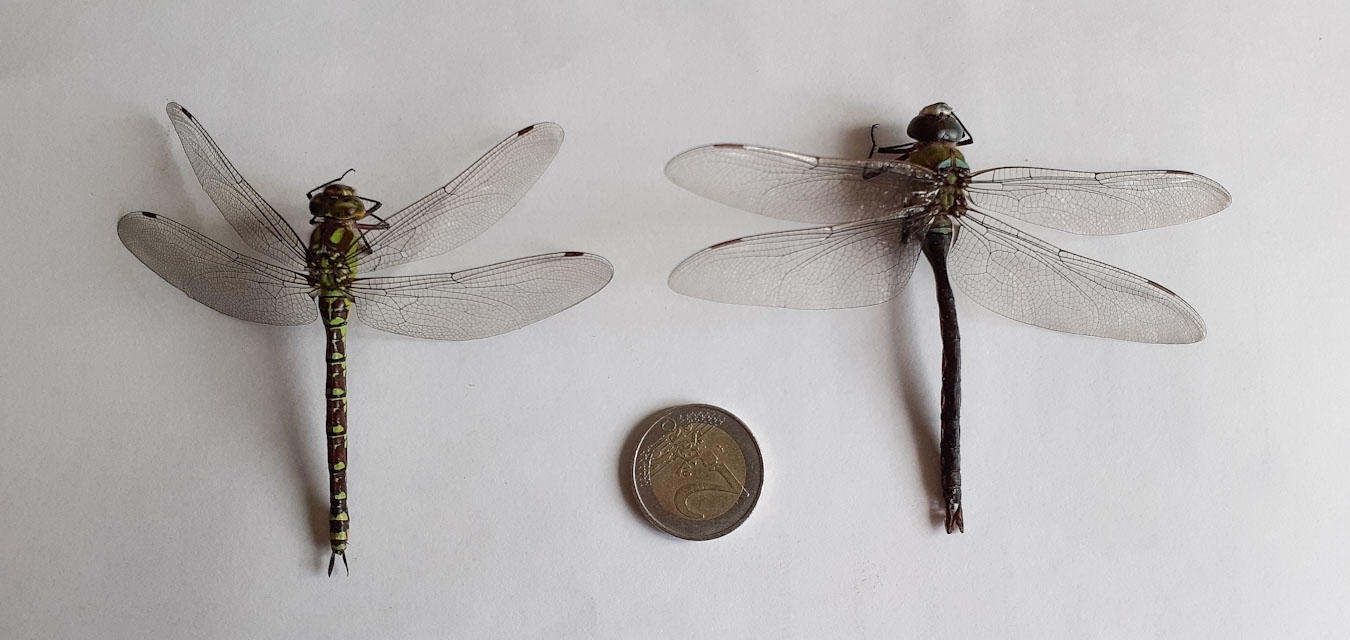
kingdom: Animalia
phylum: Arthropoda
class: Insecta
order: Odonata
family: Aeshnidae
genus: Aeshna
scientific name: Aeshna cyanea
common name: Southern hawker
